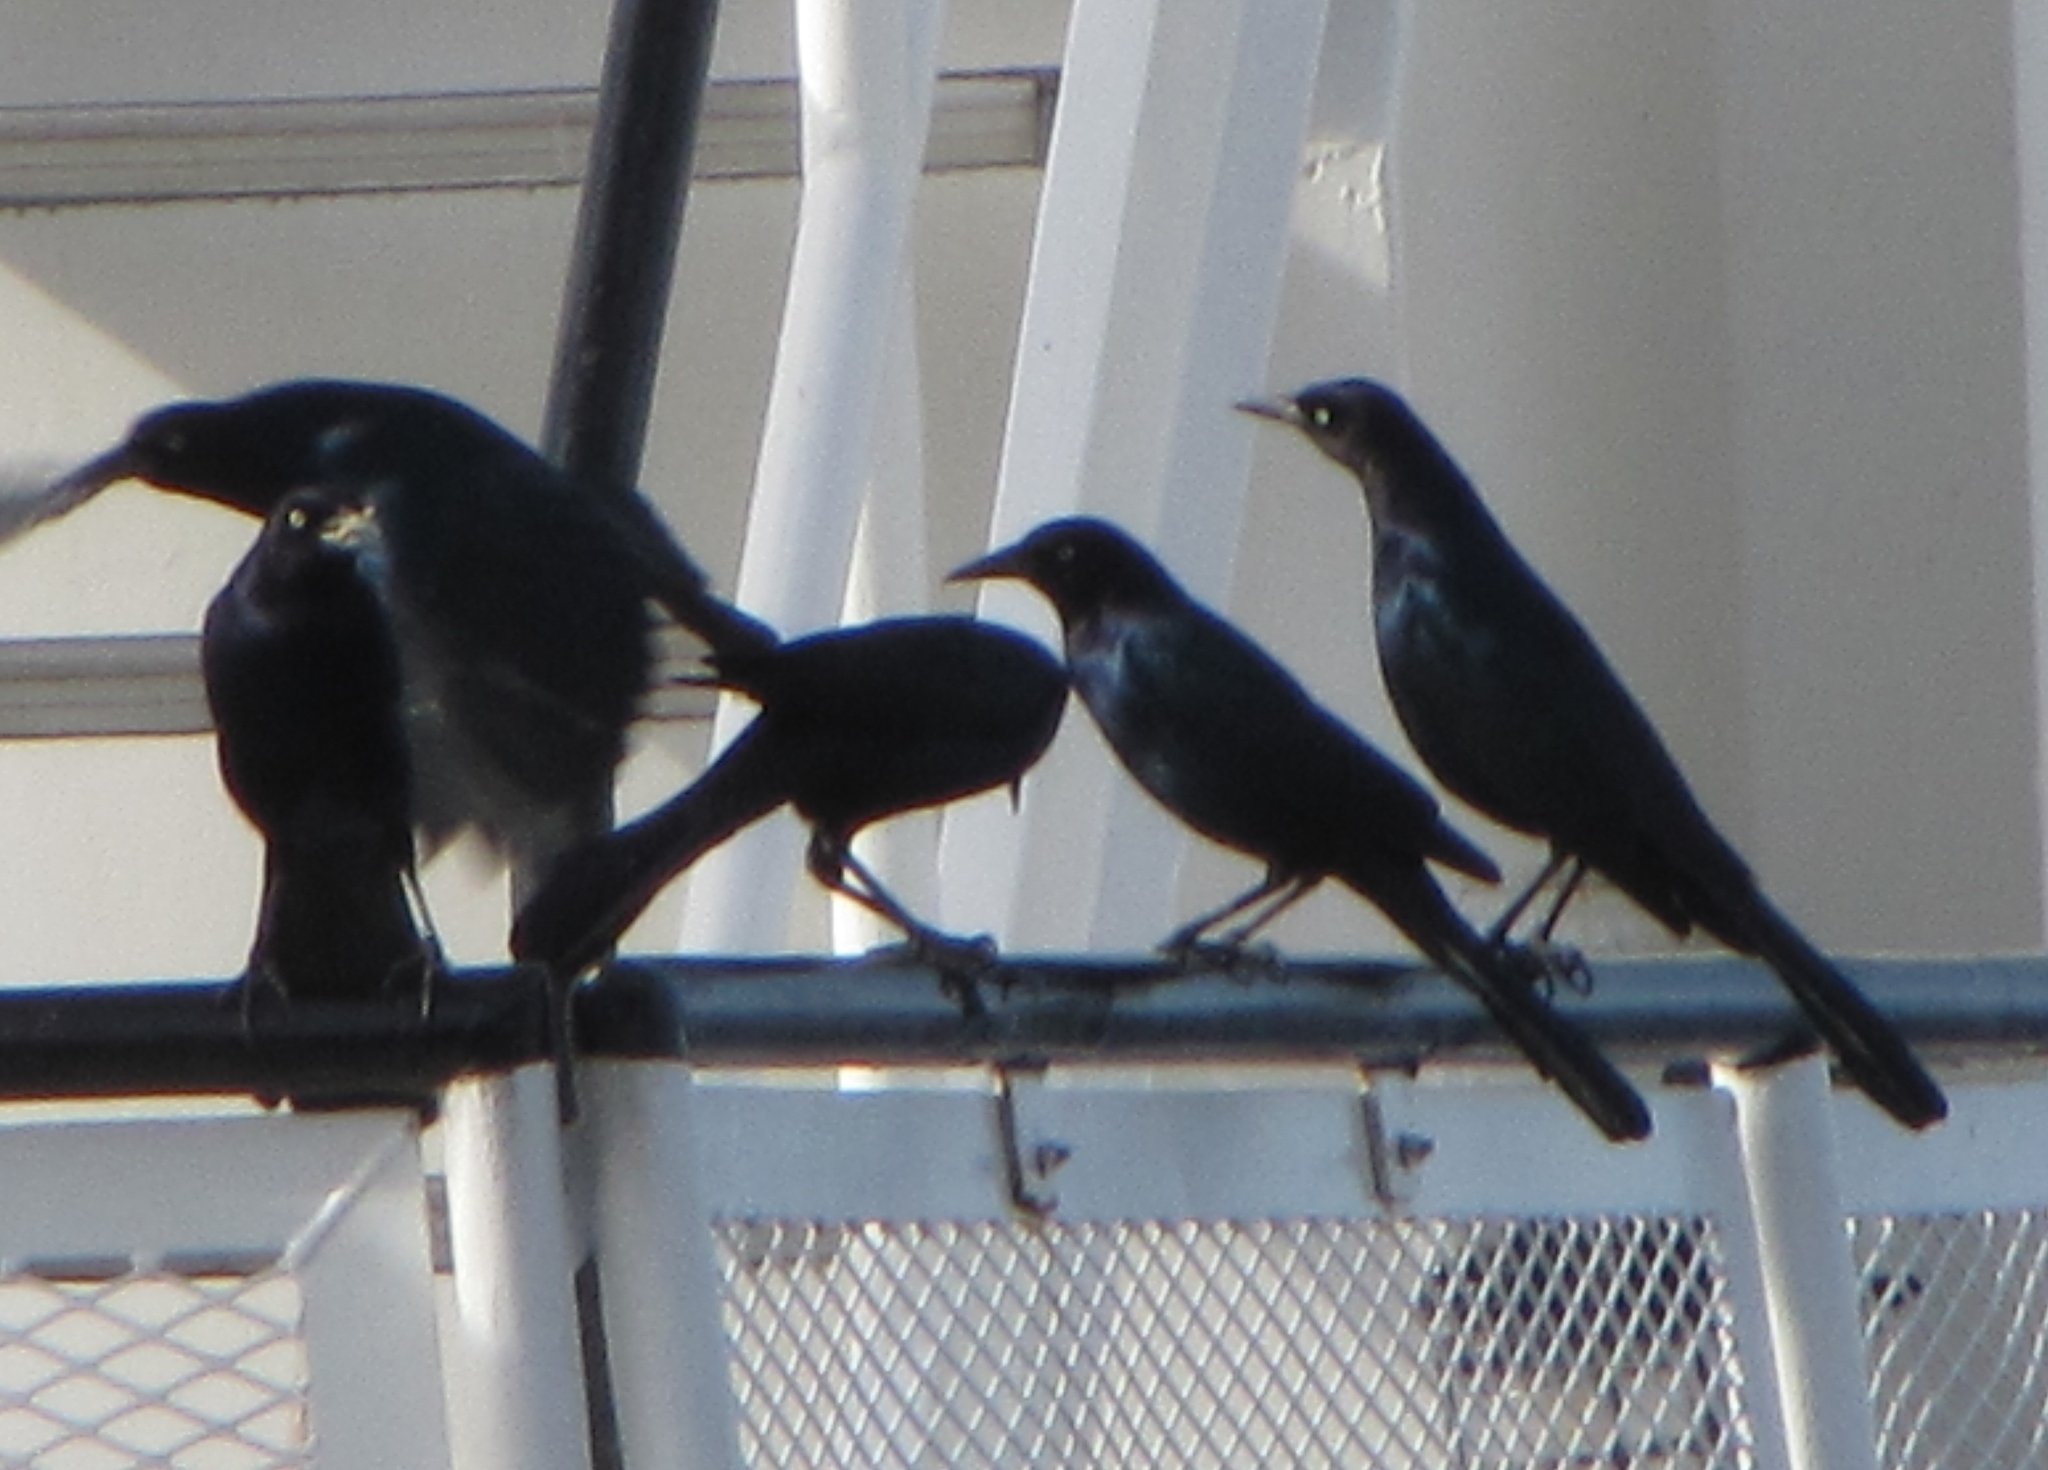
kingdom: Animalia
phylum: Chordata
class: Aves
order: Passeriformes
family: Icteridae
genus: Quiscalus
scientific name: Quiscalus major
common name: Boat-tailed grackle
